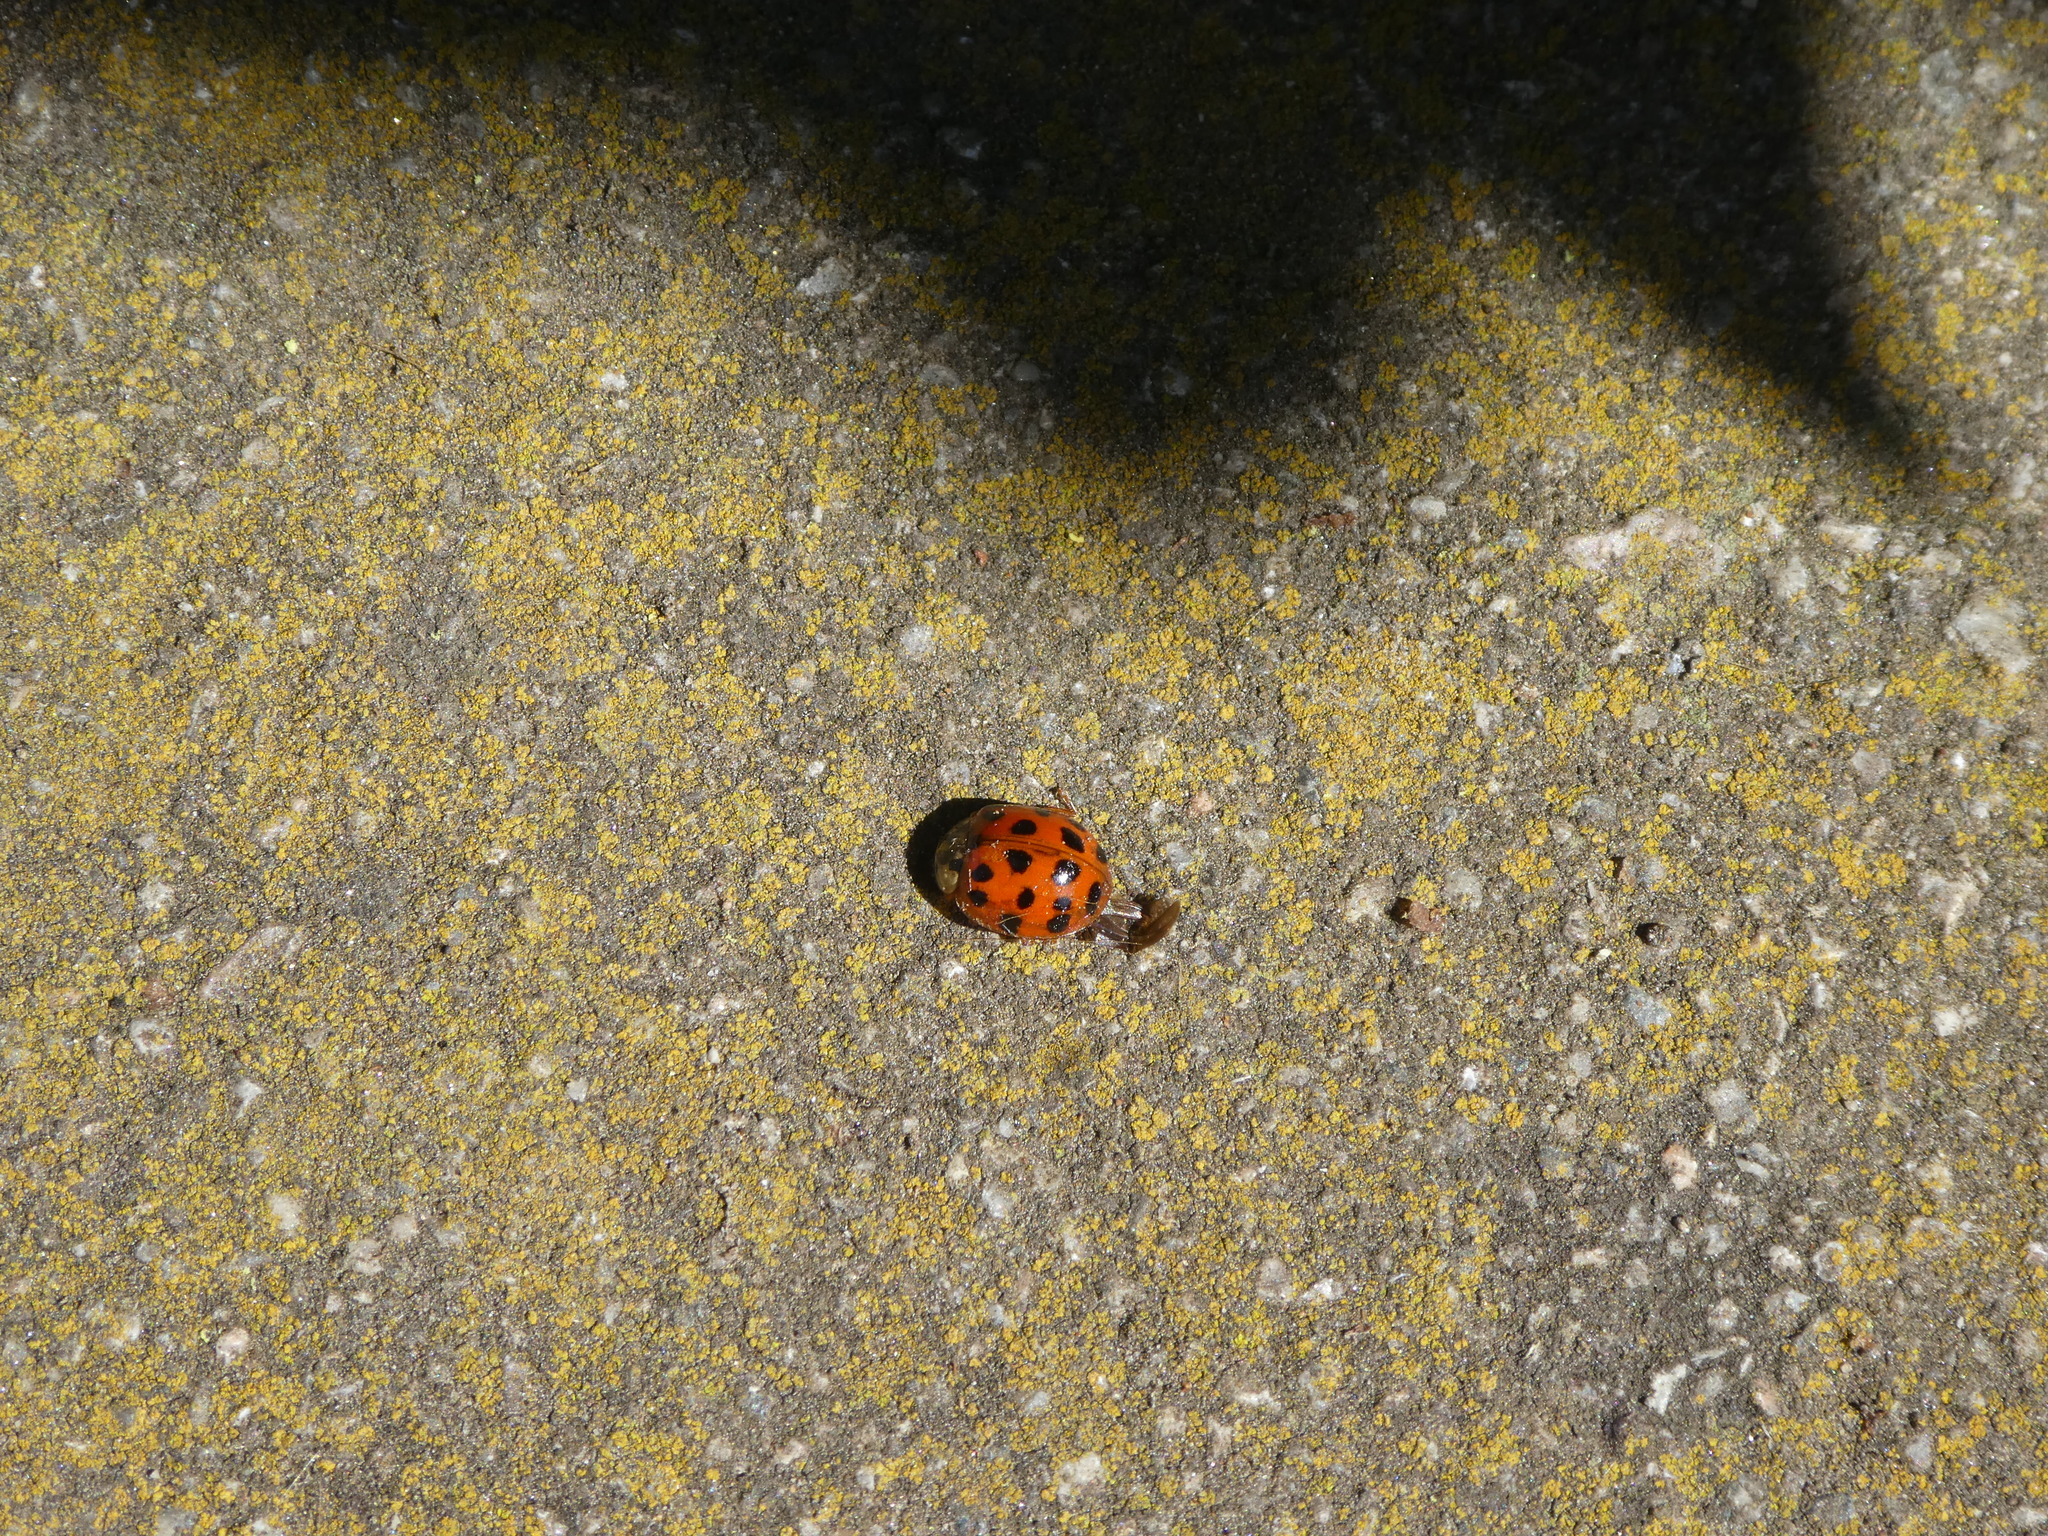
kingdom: Animalia
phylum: Arthropoda
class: Insecta
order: Coleoptera
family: Coccinellidae
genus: Harmonia
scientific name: Harmonia axyridis
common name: Harlequin ladybird
